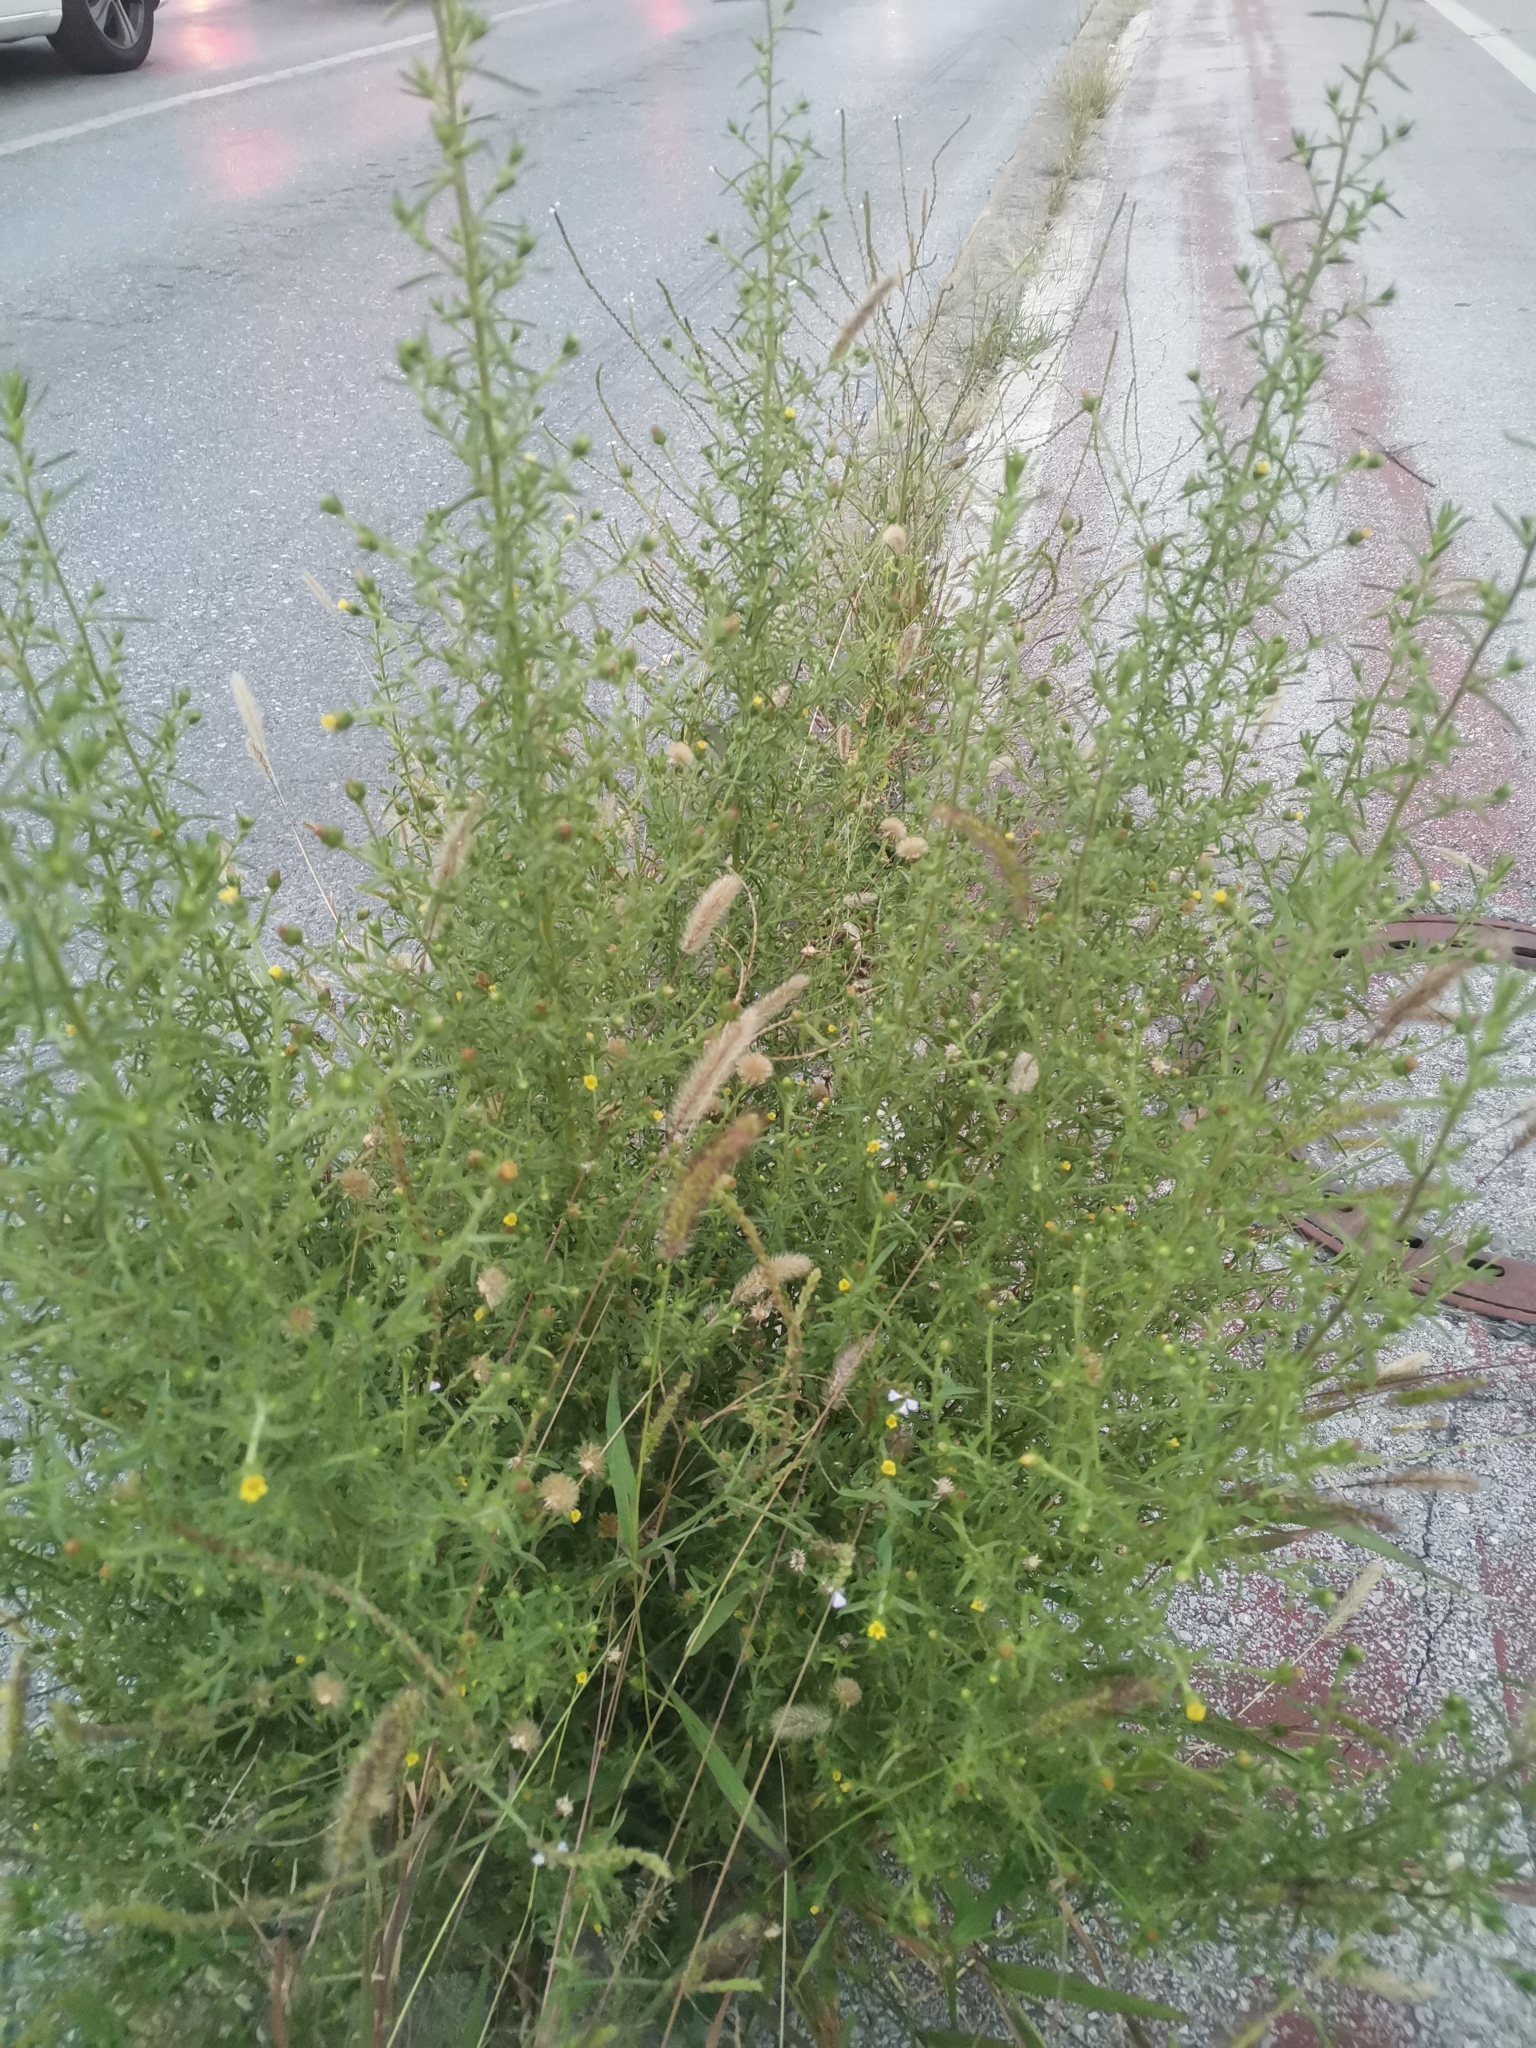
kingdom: Plantae
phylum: Tracheophyta
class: Magnoliopsida
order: Asterales
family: Asteraceae
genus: Dittrichia
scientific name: Dittrichia graveolens
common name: Stinking fleabane
